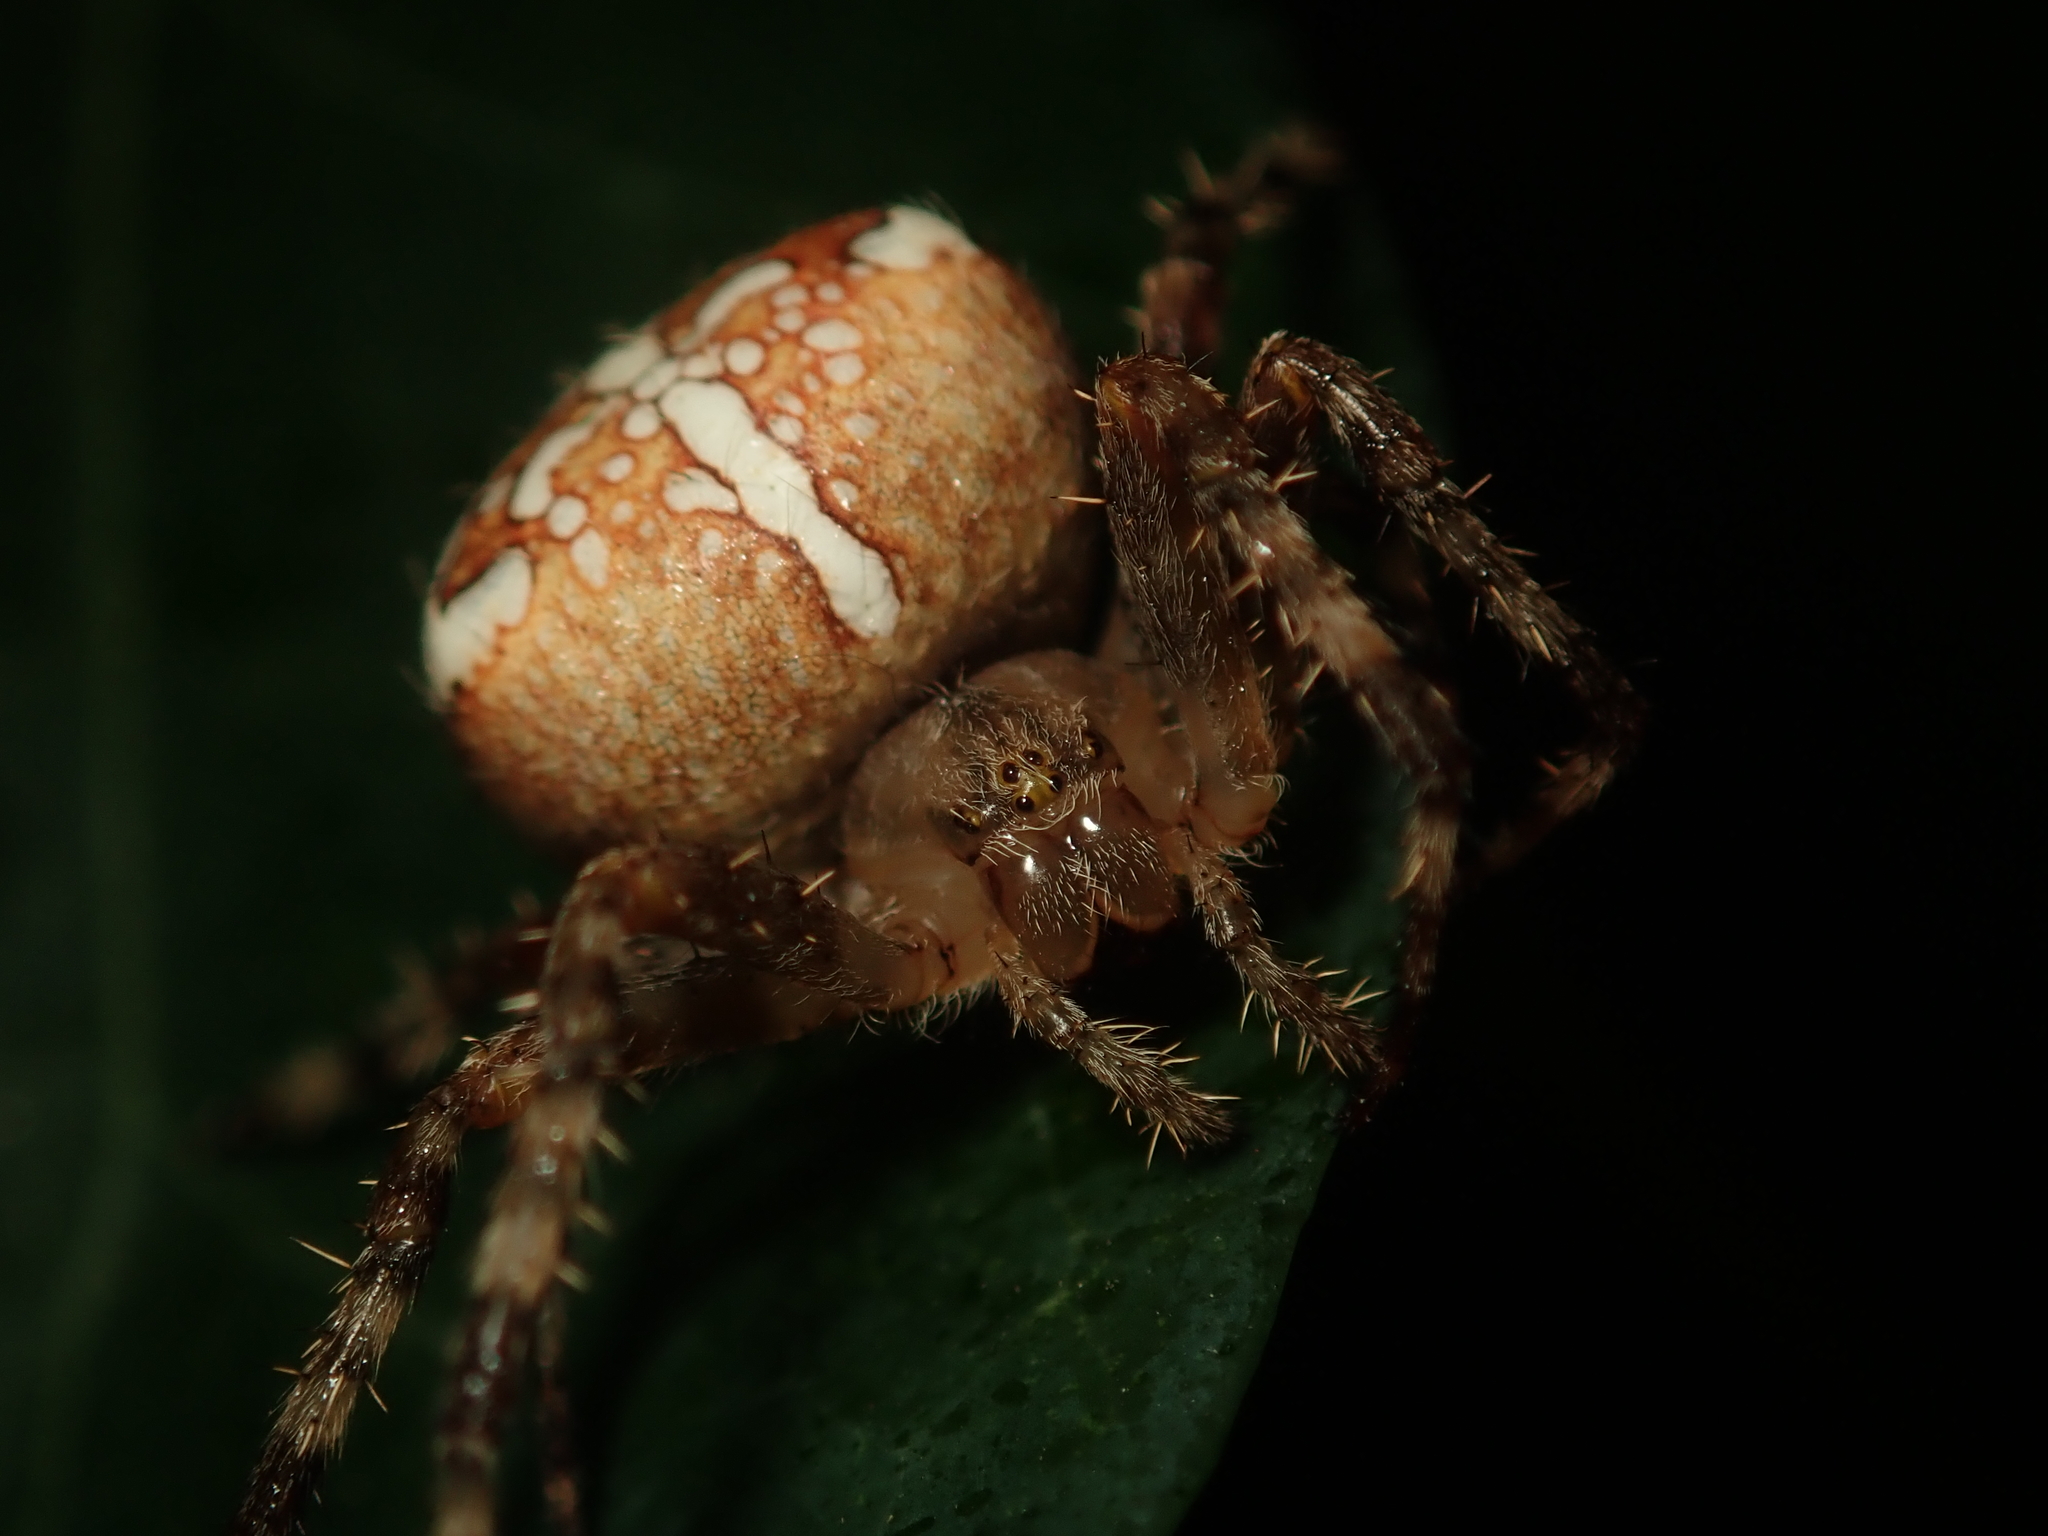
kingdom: Animalia
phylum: Arthropoda
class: Arachnida
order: Araneae
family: Araneidae
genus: Araneus
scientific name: Araneus diadematus
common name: Cross orbweaver
